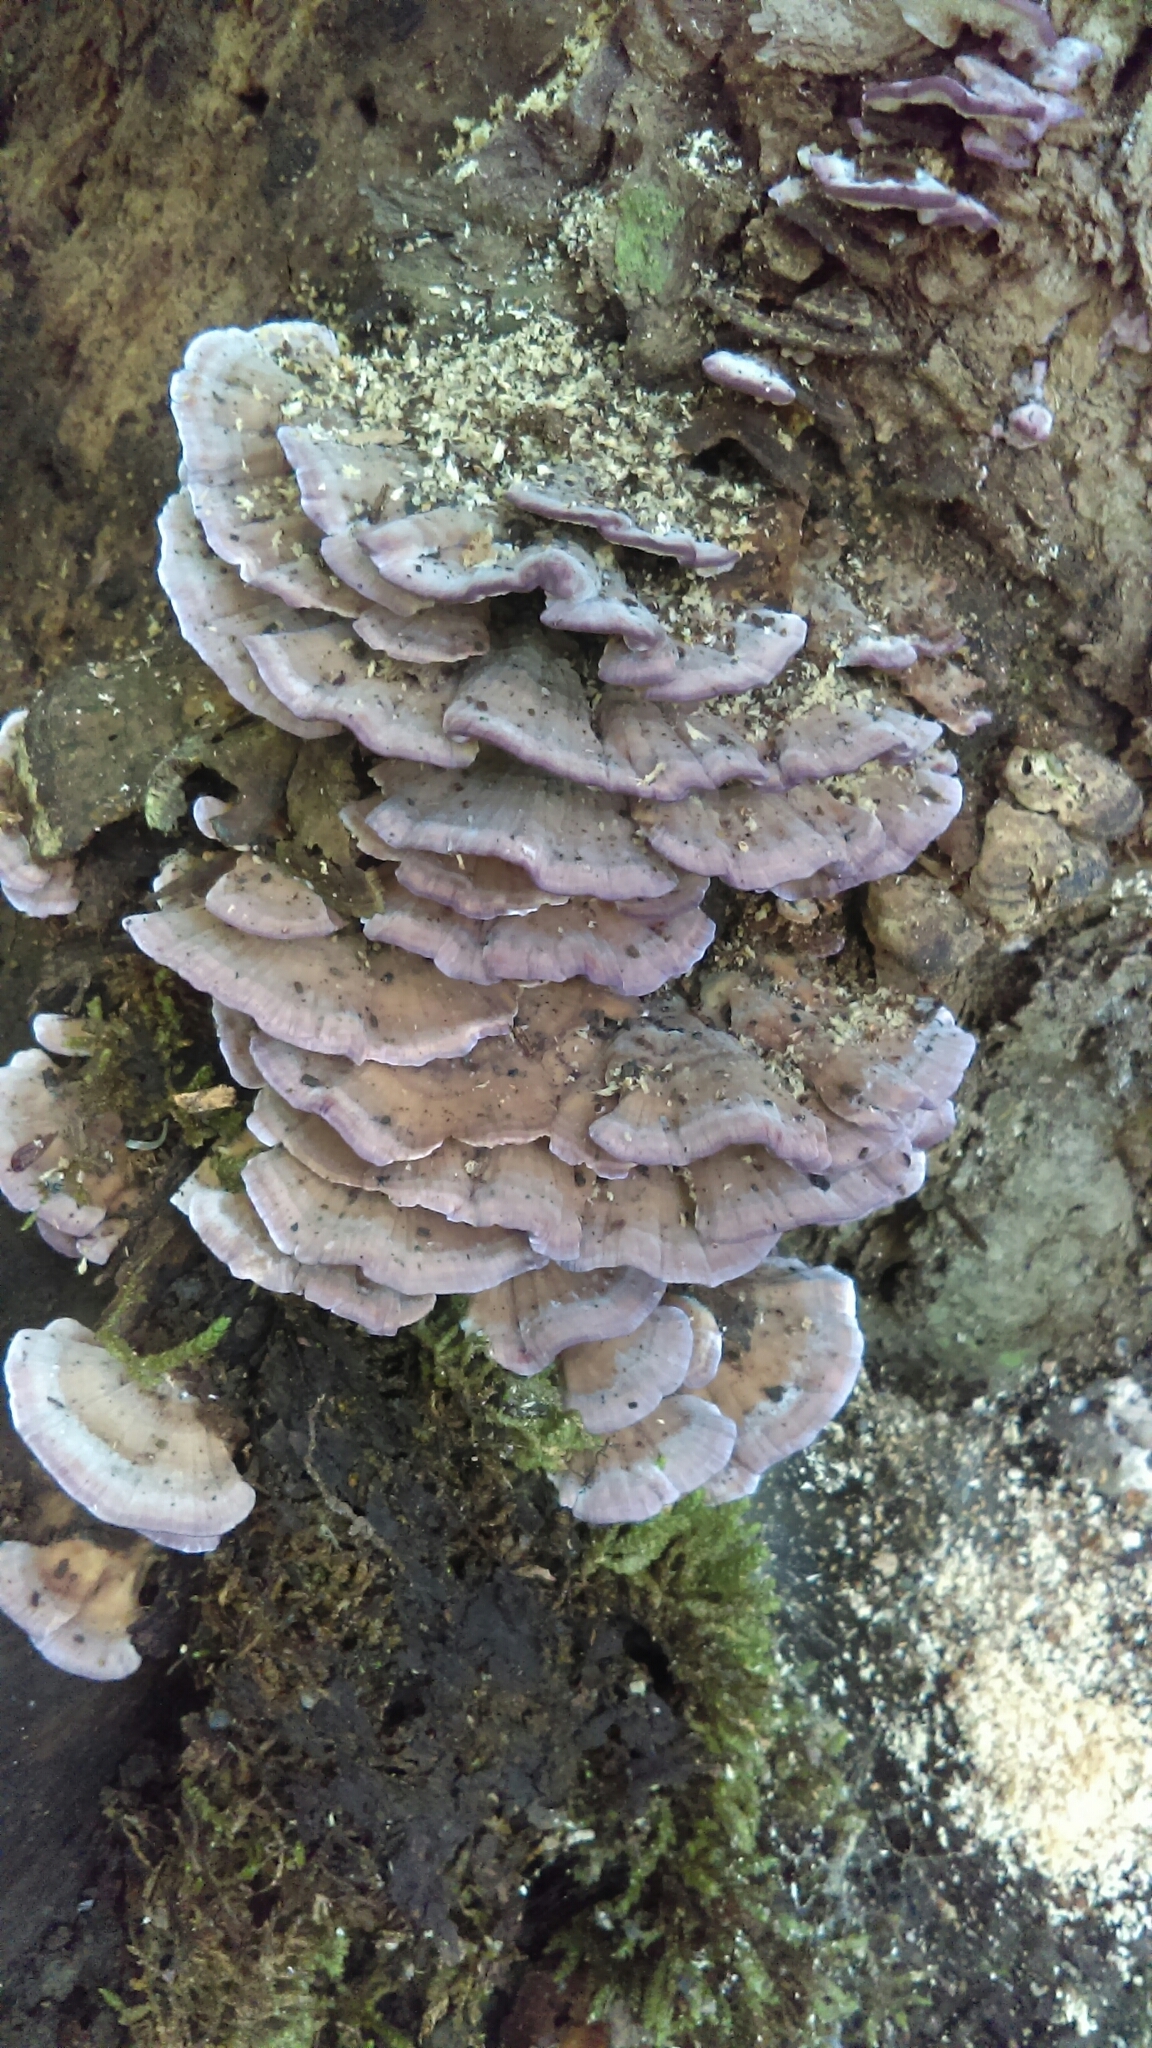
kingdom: Fungi
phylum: Basidiomycota
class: Agaricomycetes
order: Hymenochaetales
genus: Trichaptum
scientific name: Trichaptum biforme
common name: Violet-toothed polypore
